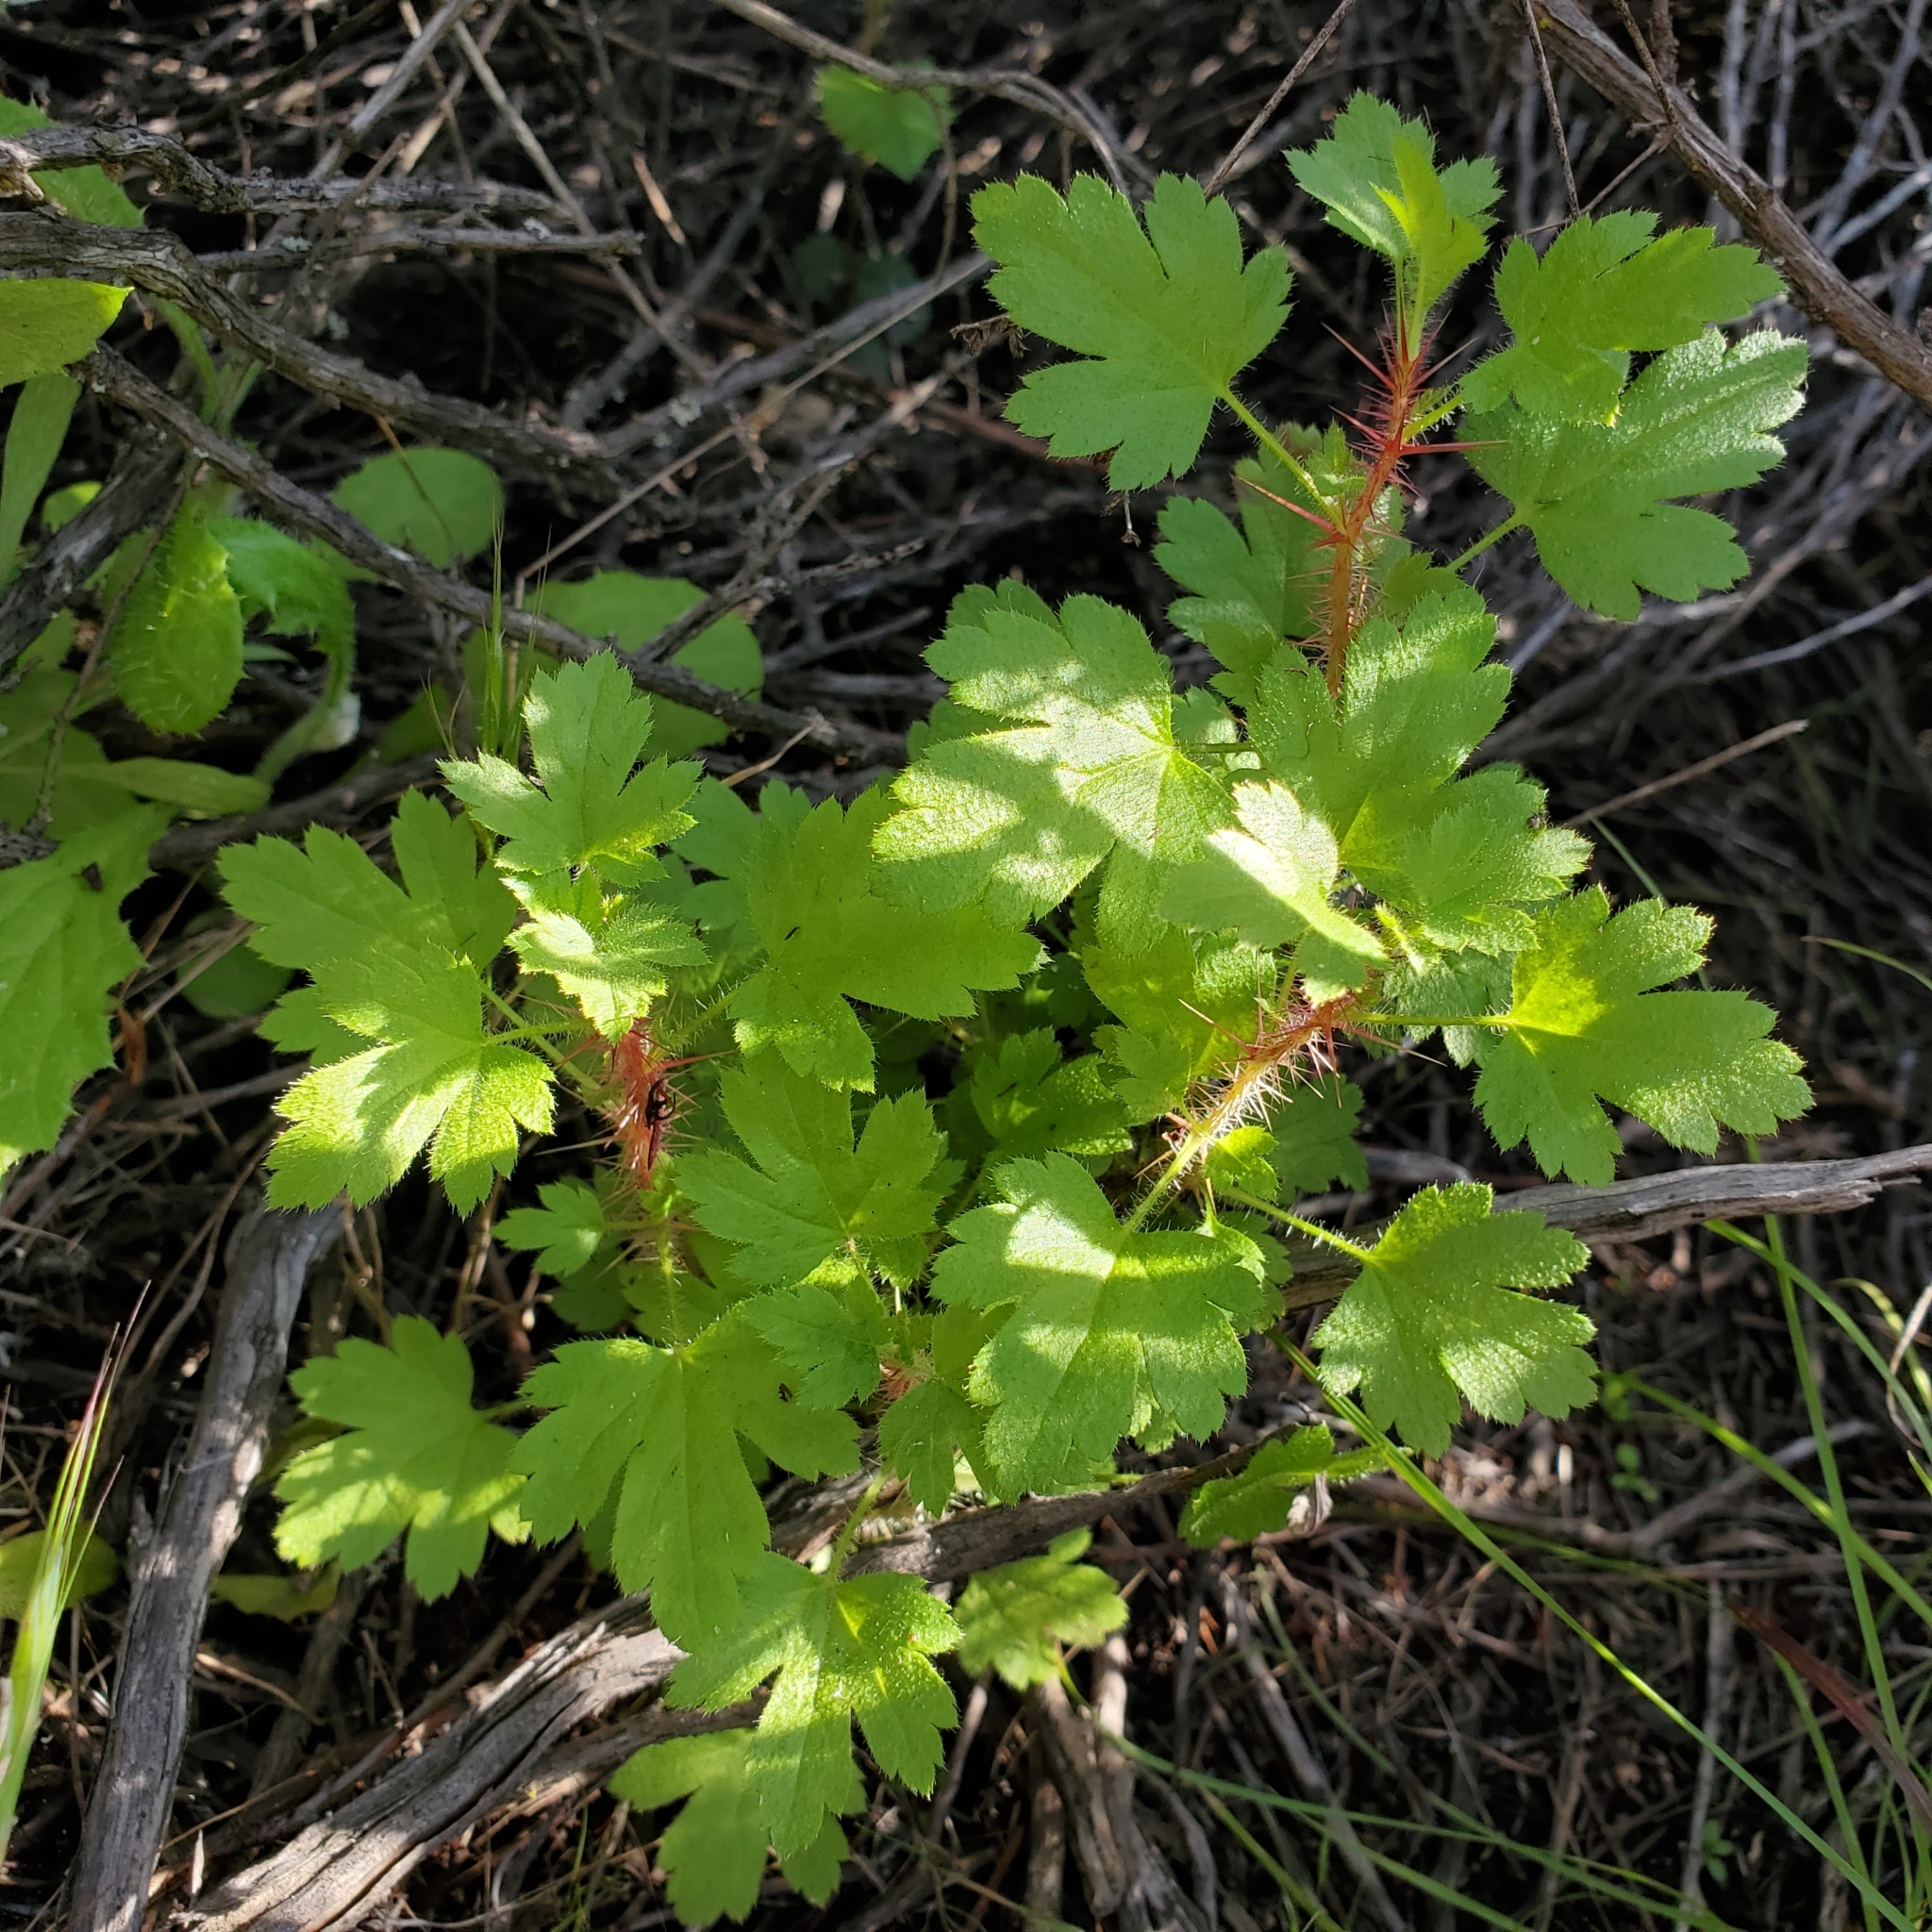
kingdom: Plantae
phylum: Tracheophyta
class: Magnoliopsida
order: Saxifragales
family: Grossulariaceae
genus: Ribes
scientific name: Ribes speciosum
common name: Fuchsia-flower gooseberry
